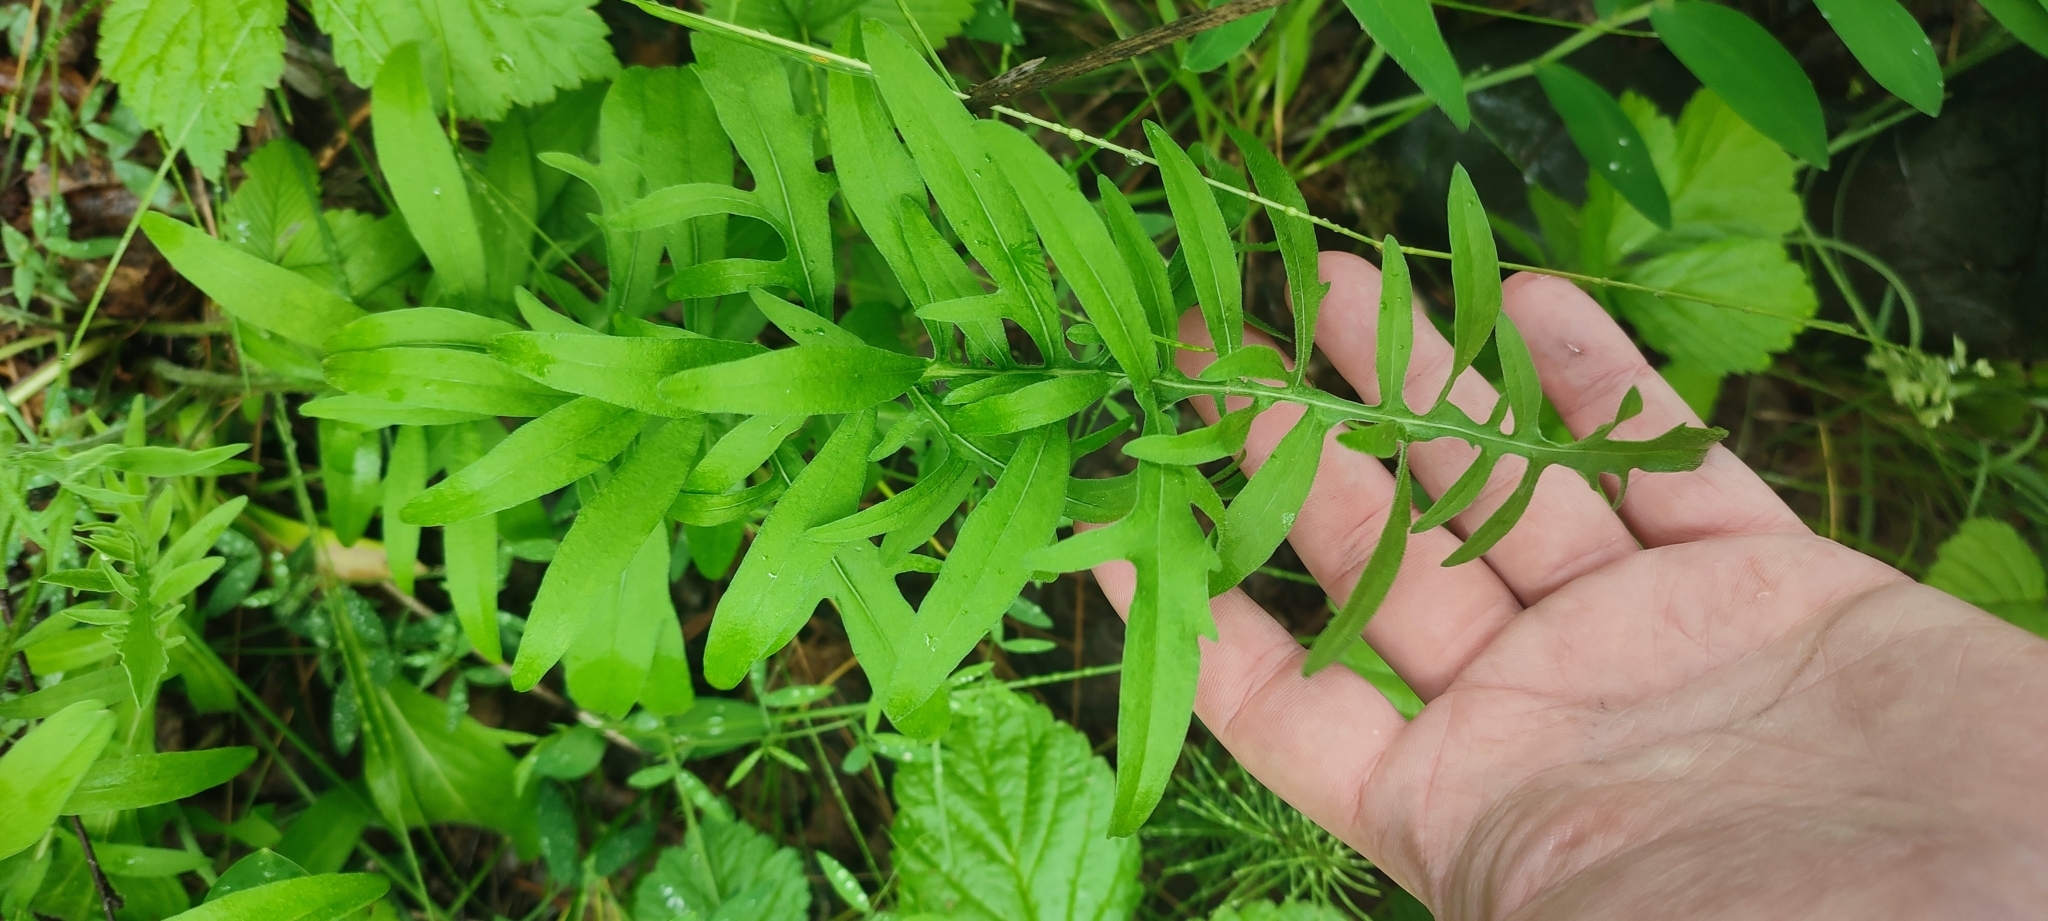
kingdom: Plantae
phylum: Tracheophyta
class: Magnoliopsida
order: Asterales
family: Asteraceae
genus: Centaurea
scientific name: Centaurea scabiosa
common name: Greater knapweed
